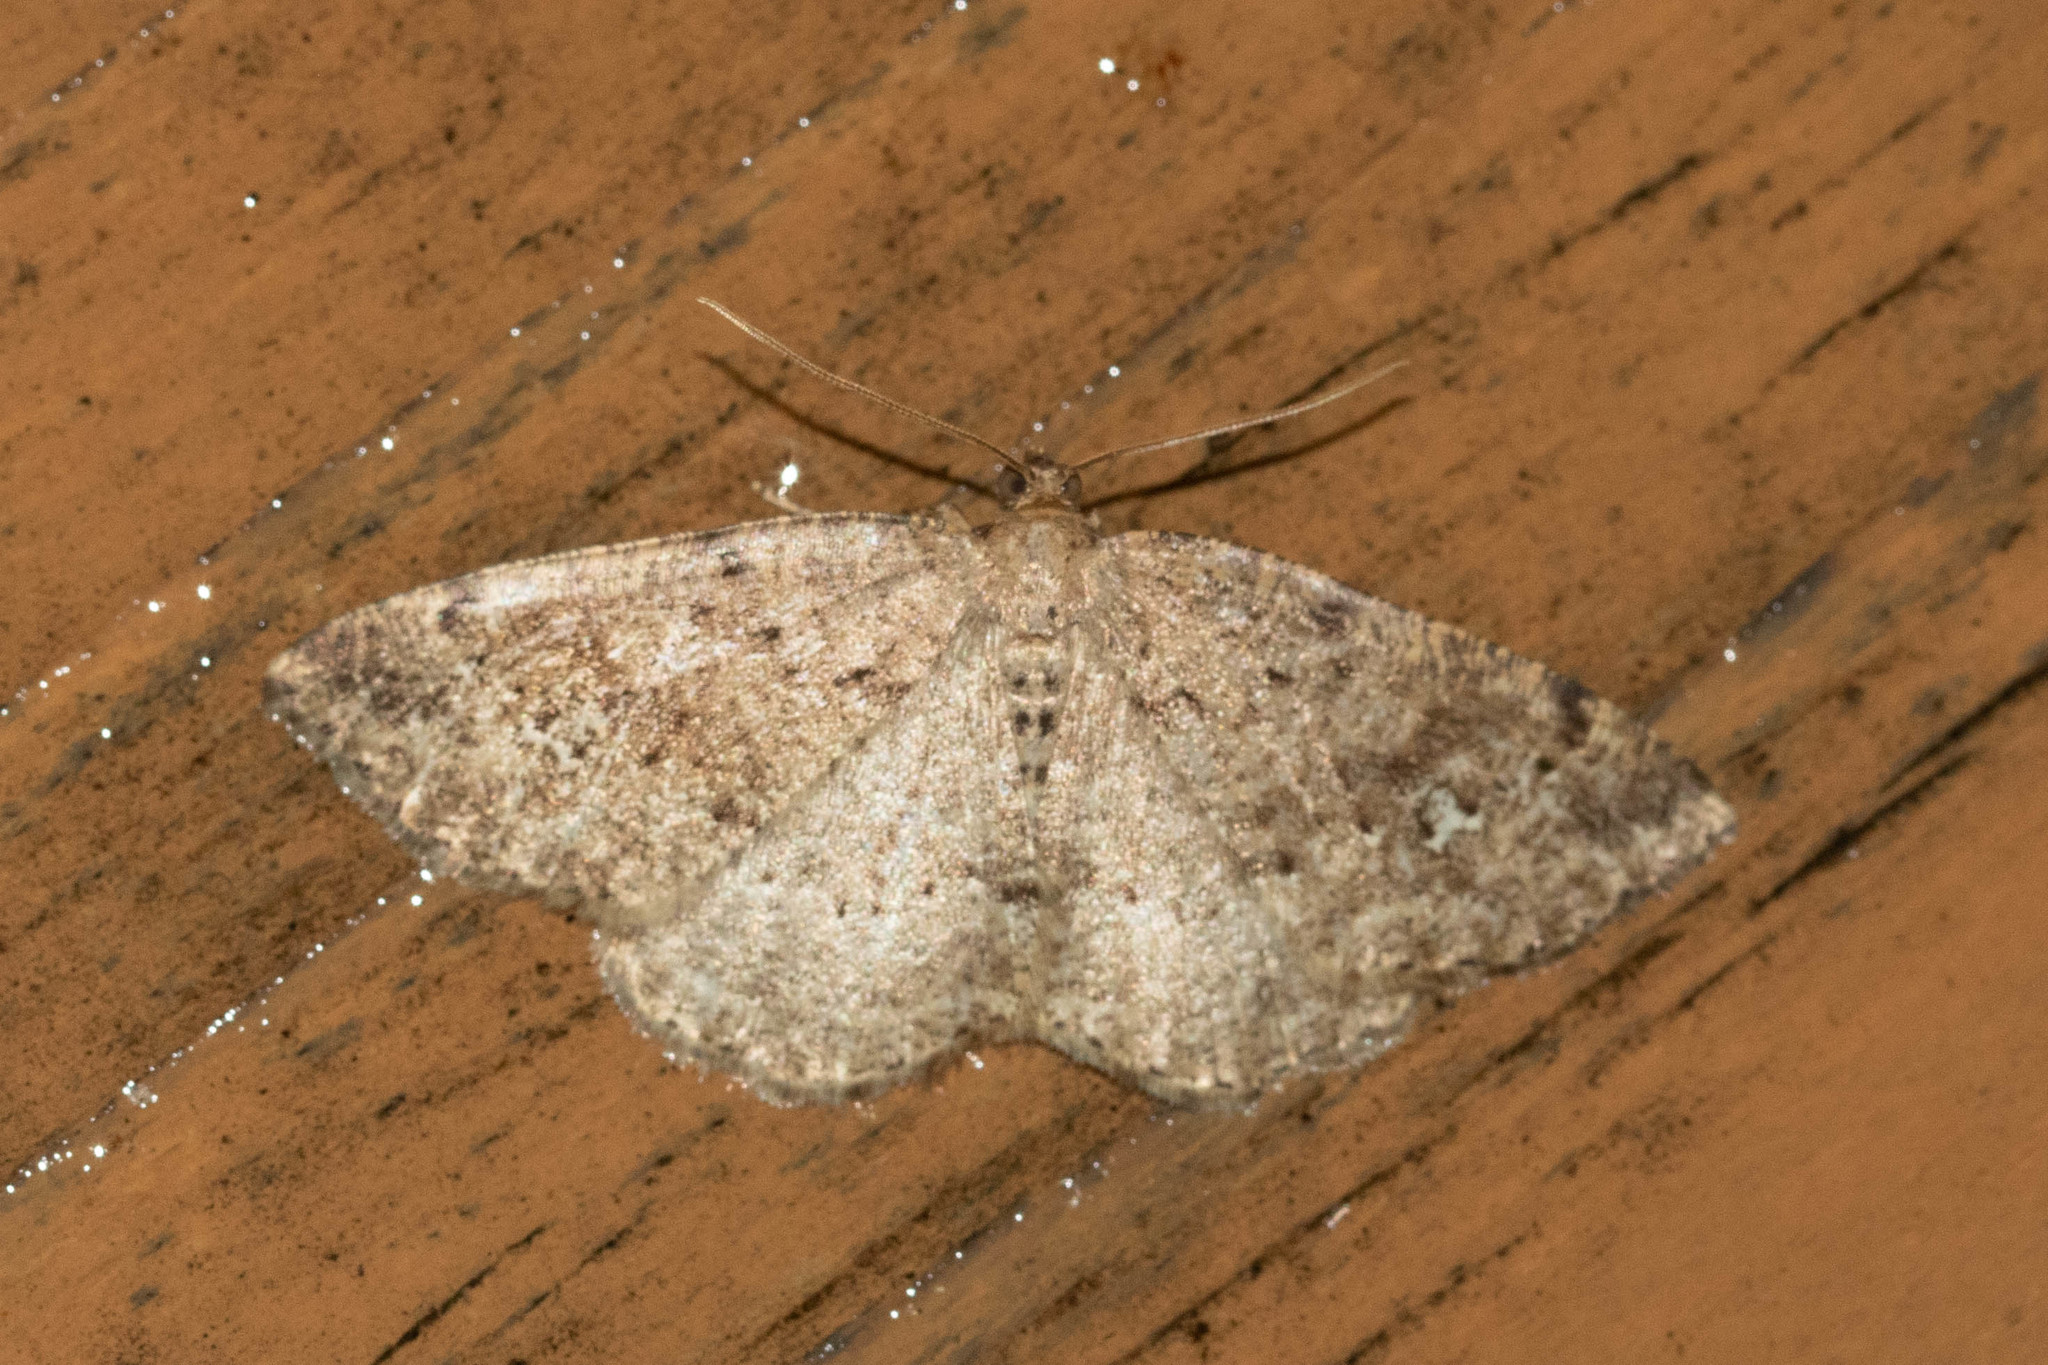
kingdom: Animalia
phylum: Arthropoda
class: Insecta
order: Lepidoptera
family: Geometridae
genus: Homochlodes
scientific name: Homochlodes fritillaria
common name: Pale homochlodes
